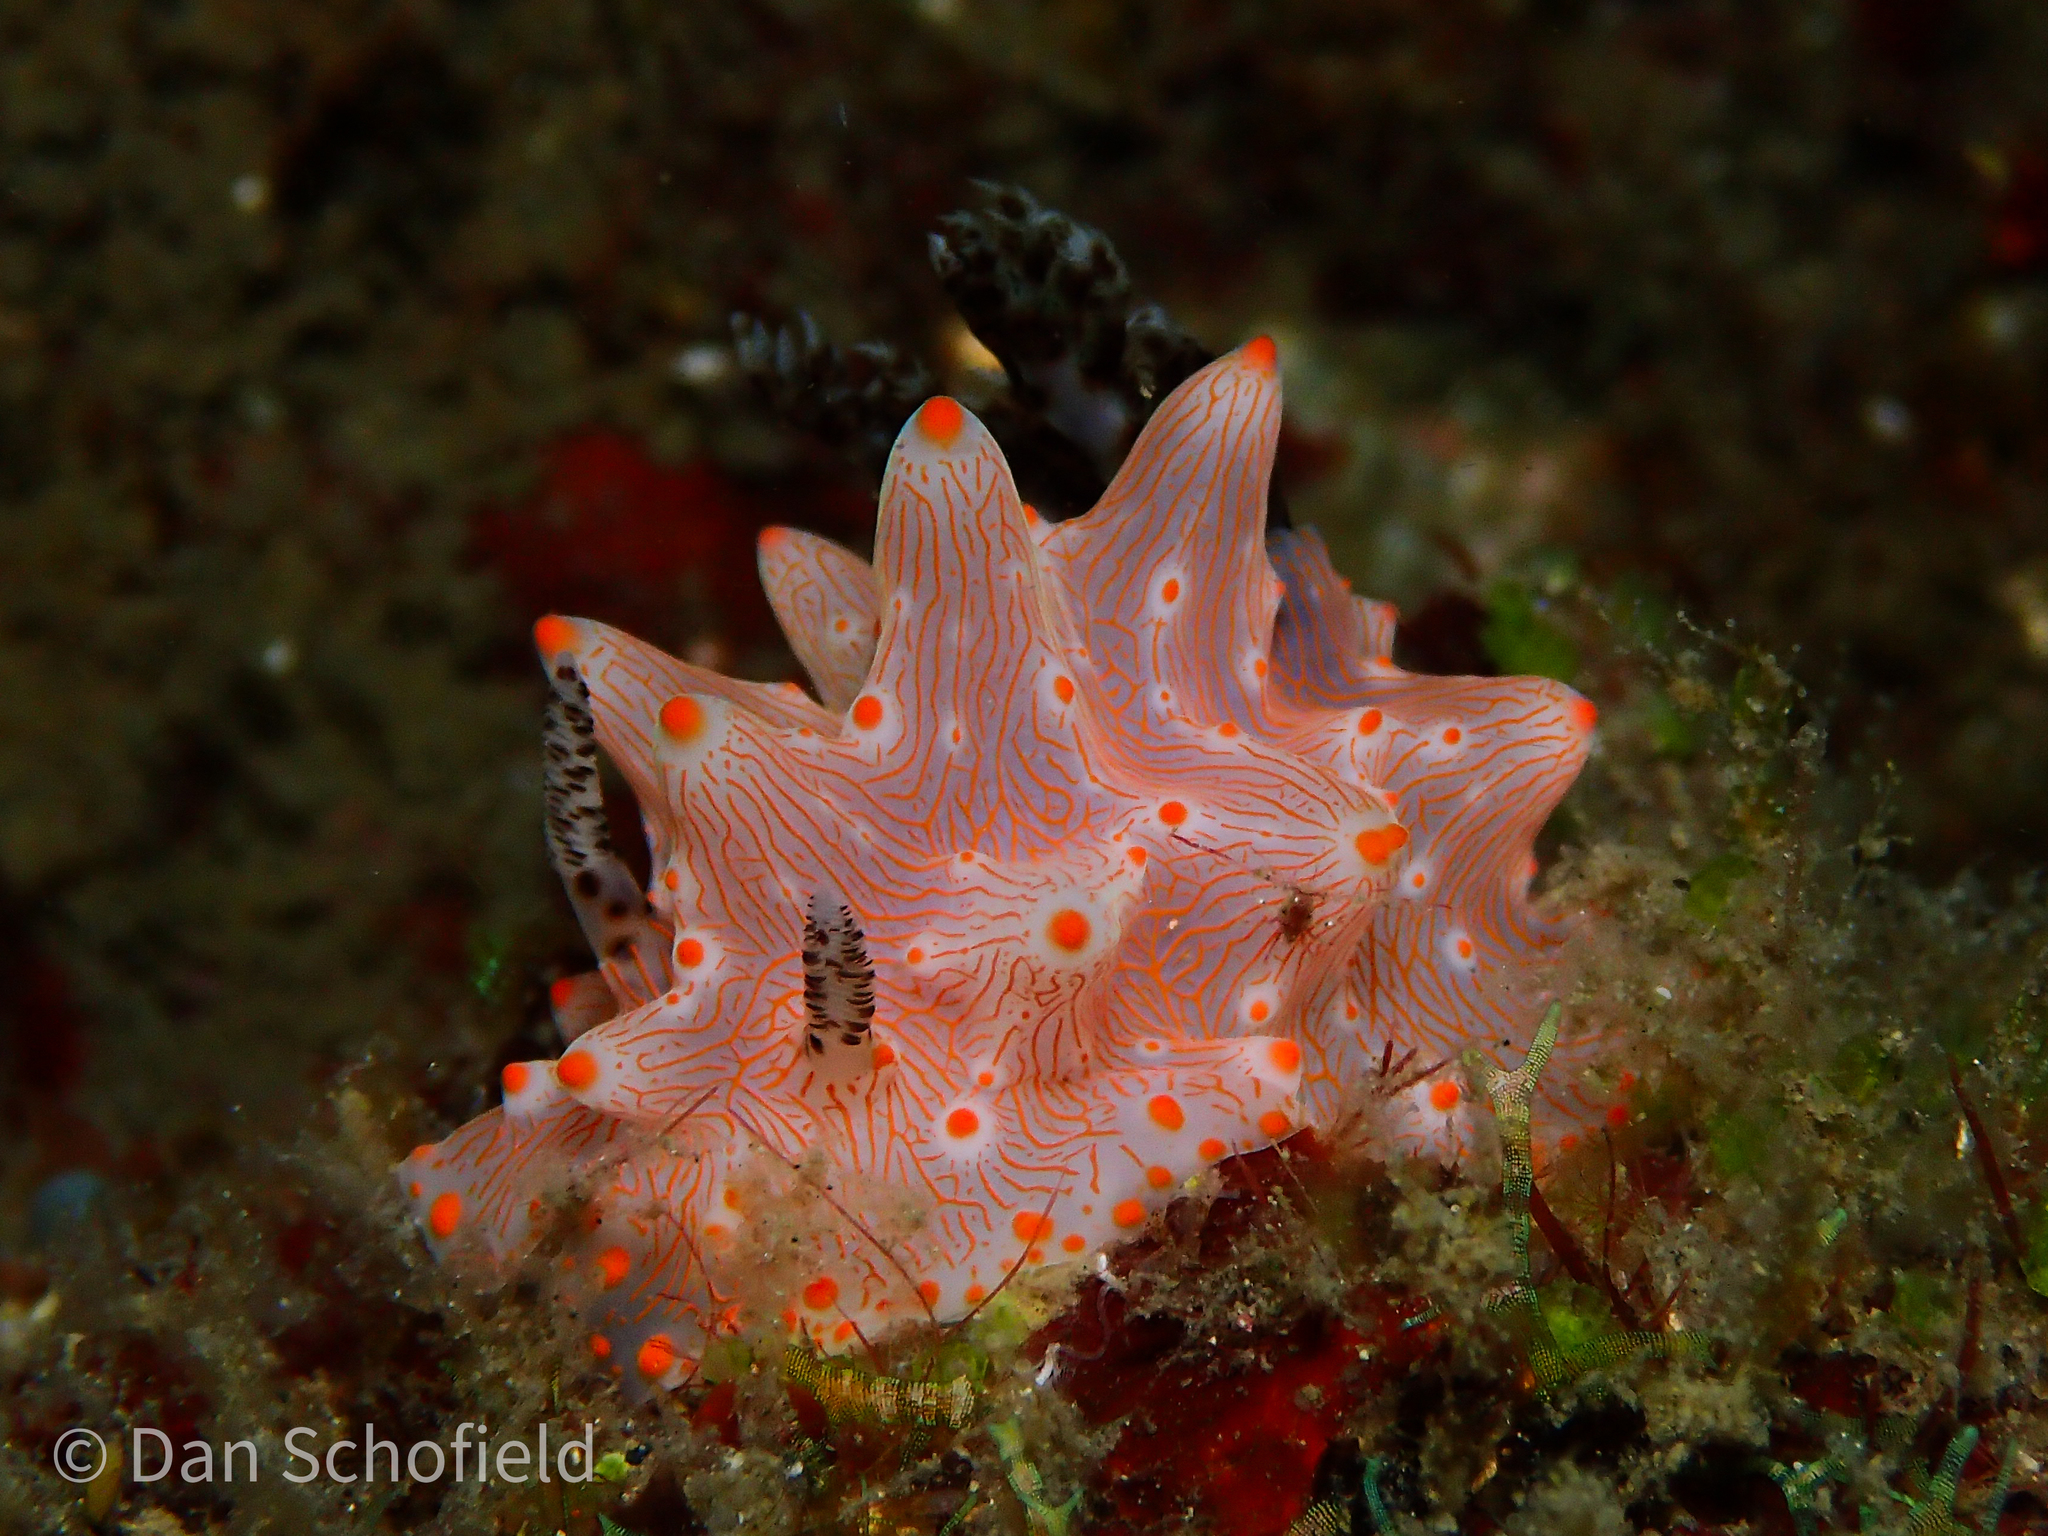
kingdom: Animalia
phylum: Mollusca
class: Gastropoda
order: Nudibranchia
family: Discodorididae
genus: Halgerda
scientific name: Halgerda batangas
